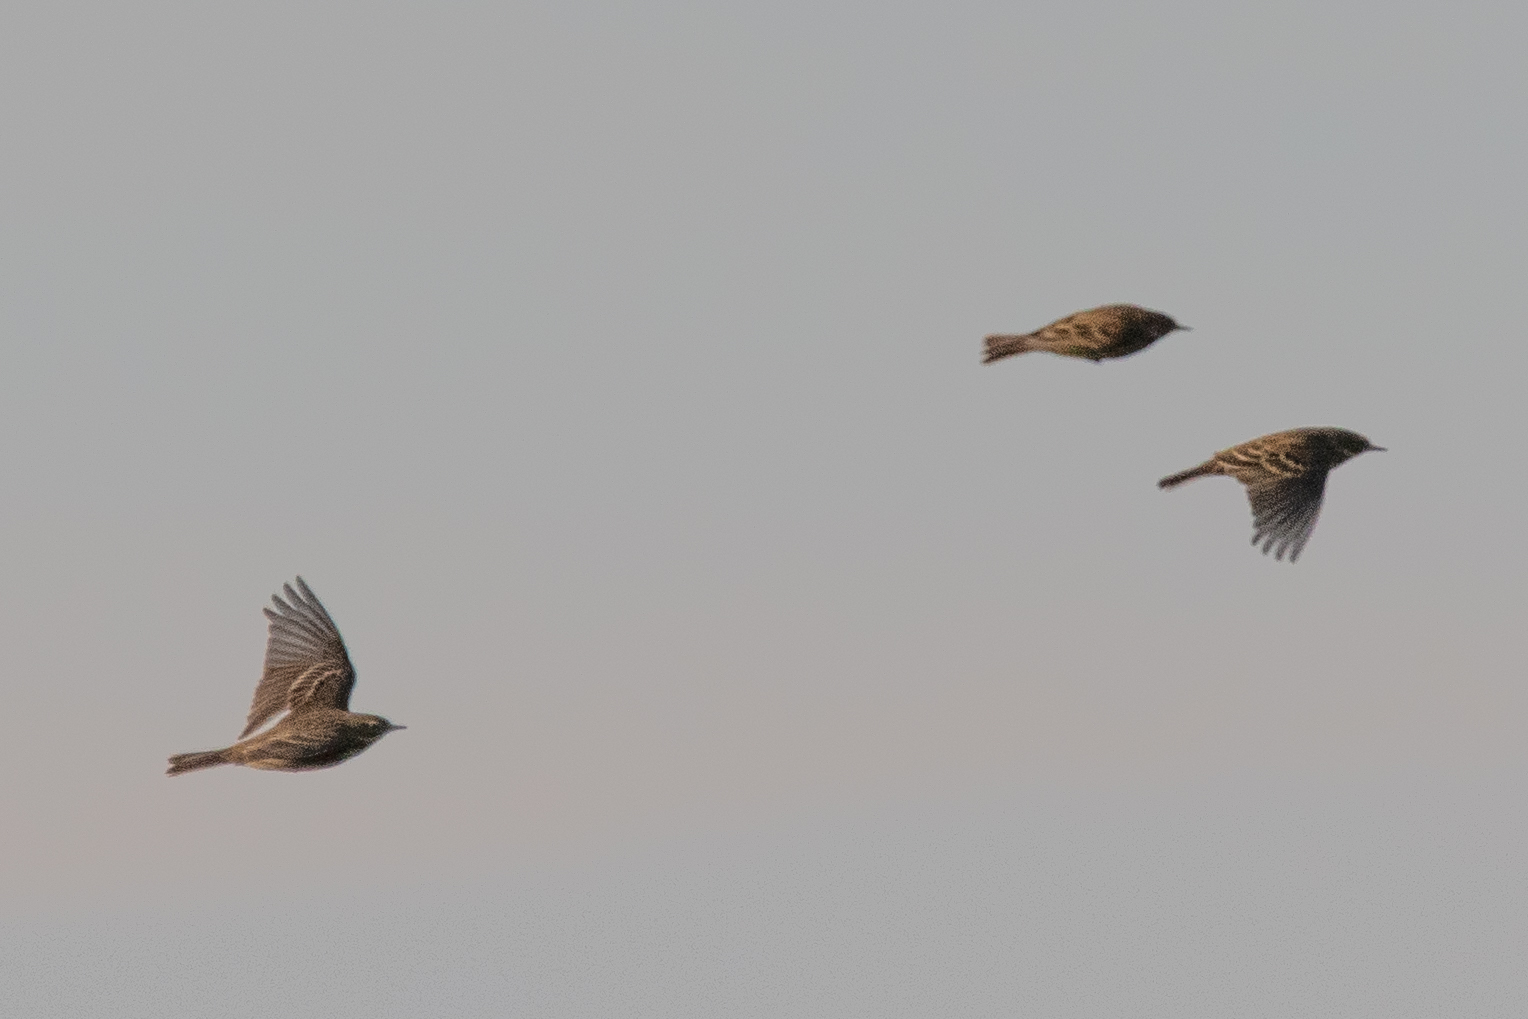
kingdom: Animalia
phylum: Chordata
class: Aves
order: Passeriformes
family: Motacillidae
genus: Anthus
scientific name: Anthus pratensis
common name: Meadow pipit
